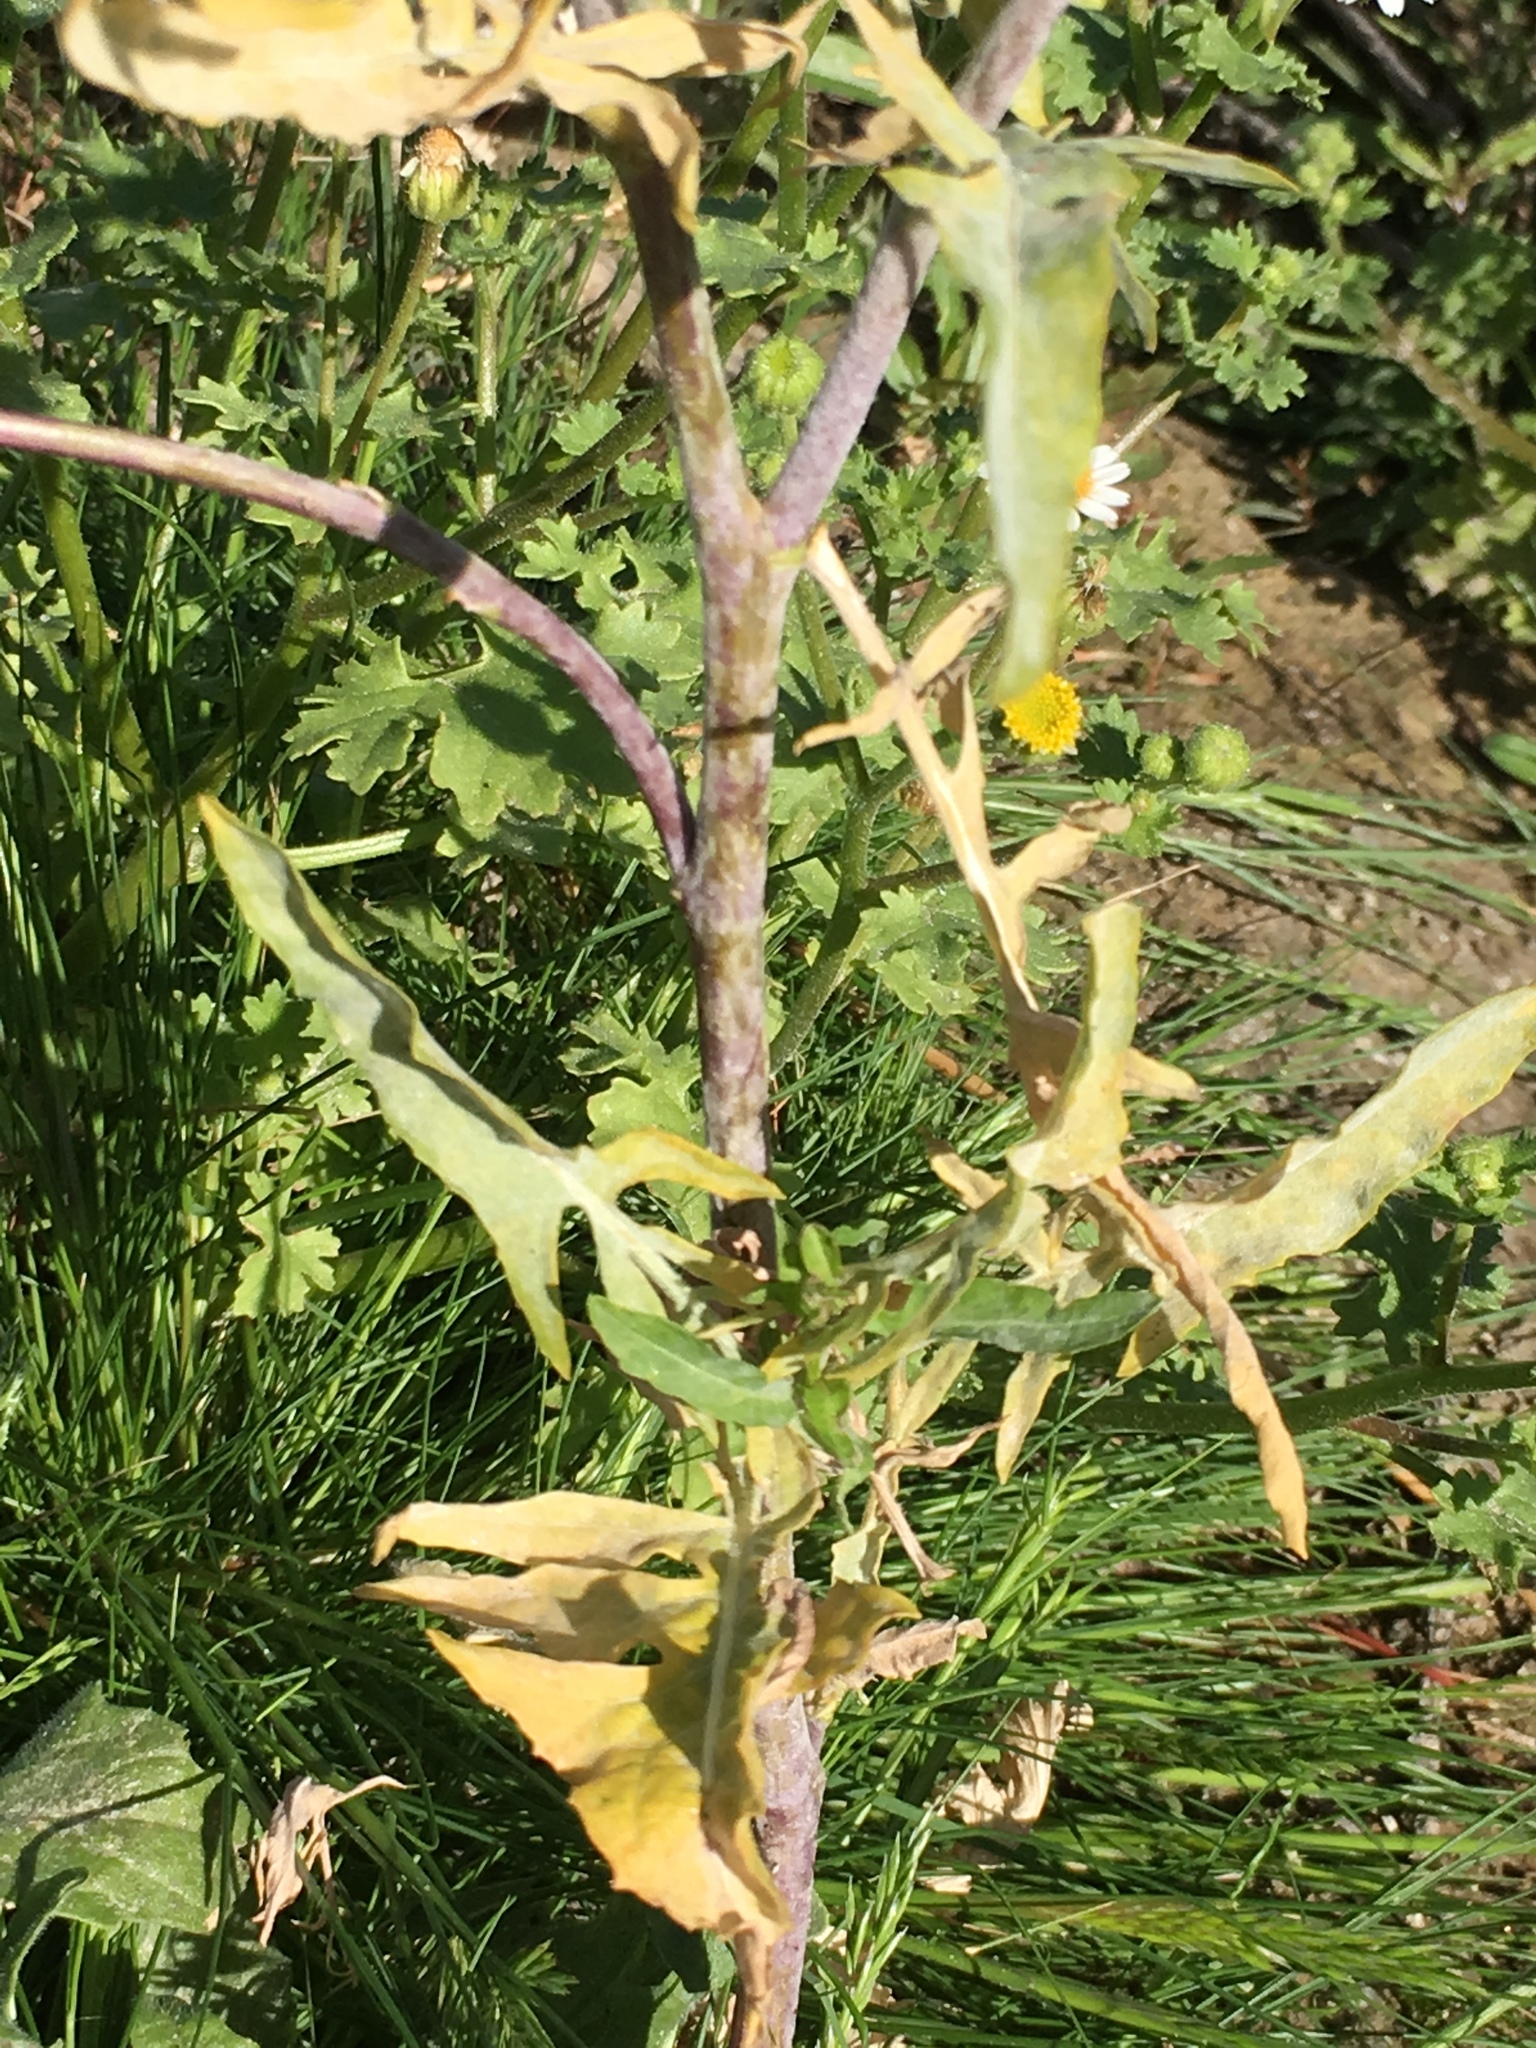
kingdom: Plantae
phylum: Tracheophyta
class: Magnoliopsida
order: Brassicales
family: Brassicaceae
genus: Sisymbrium
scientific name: Sisymbrium irio
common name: London rocket
